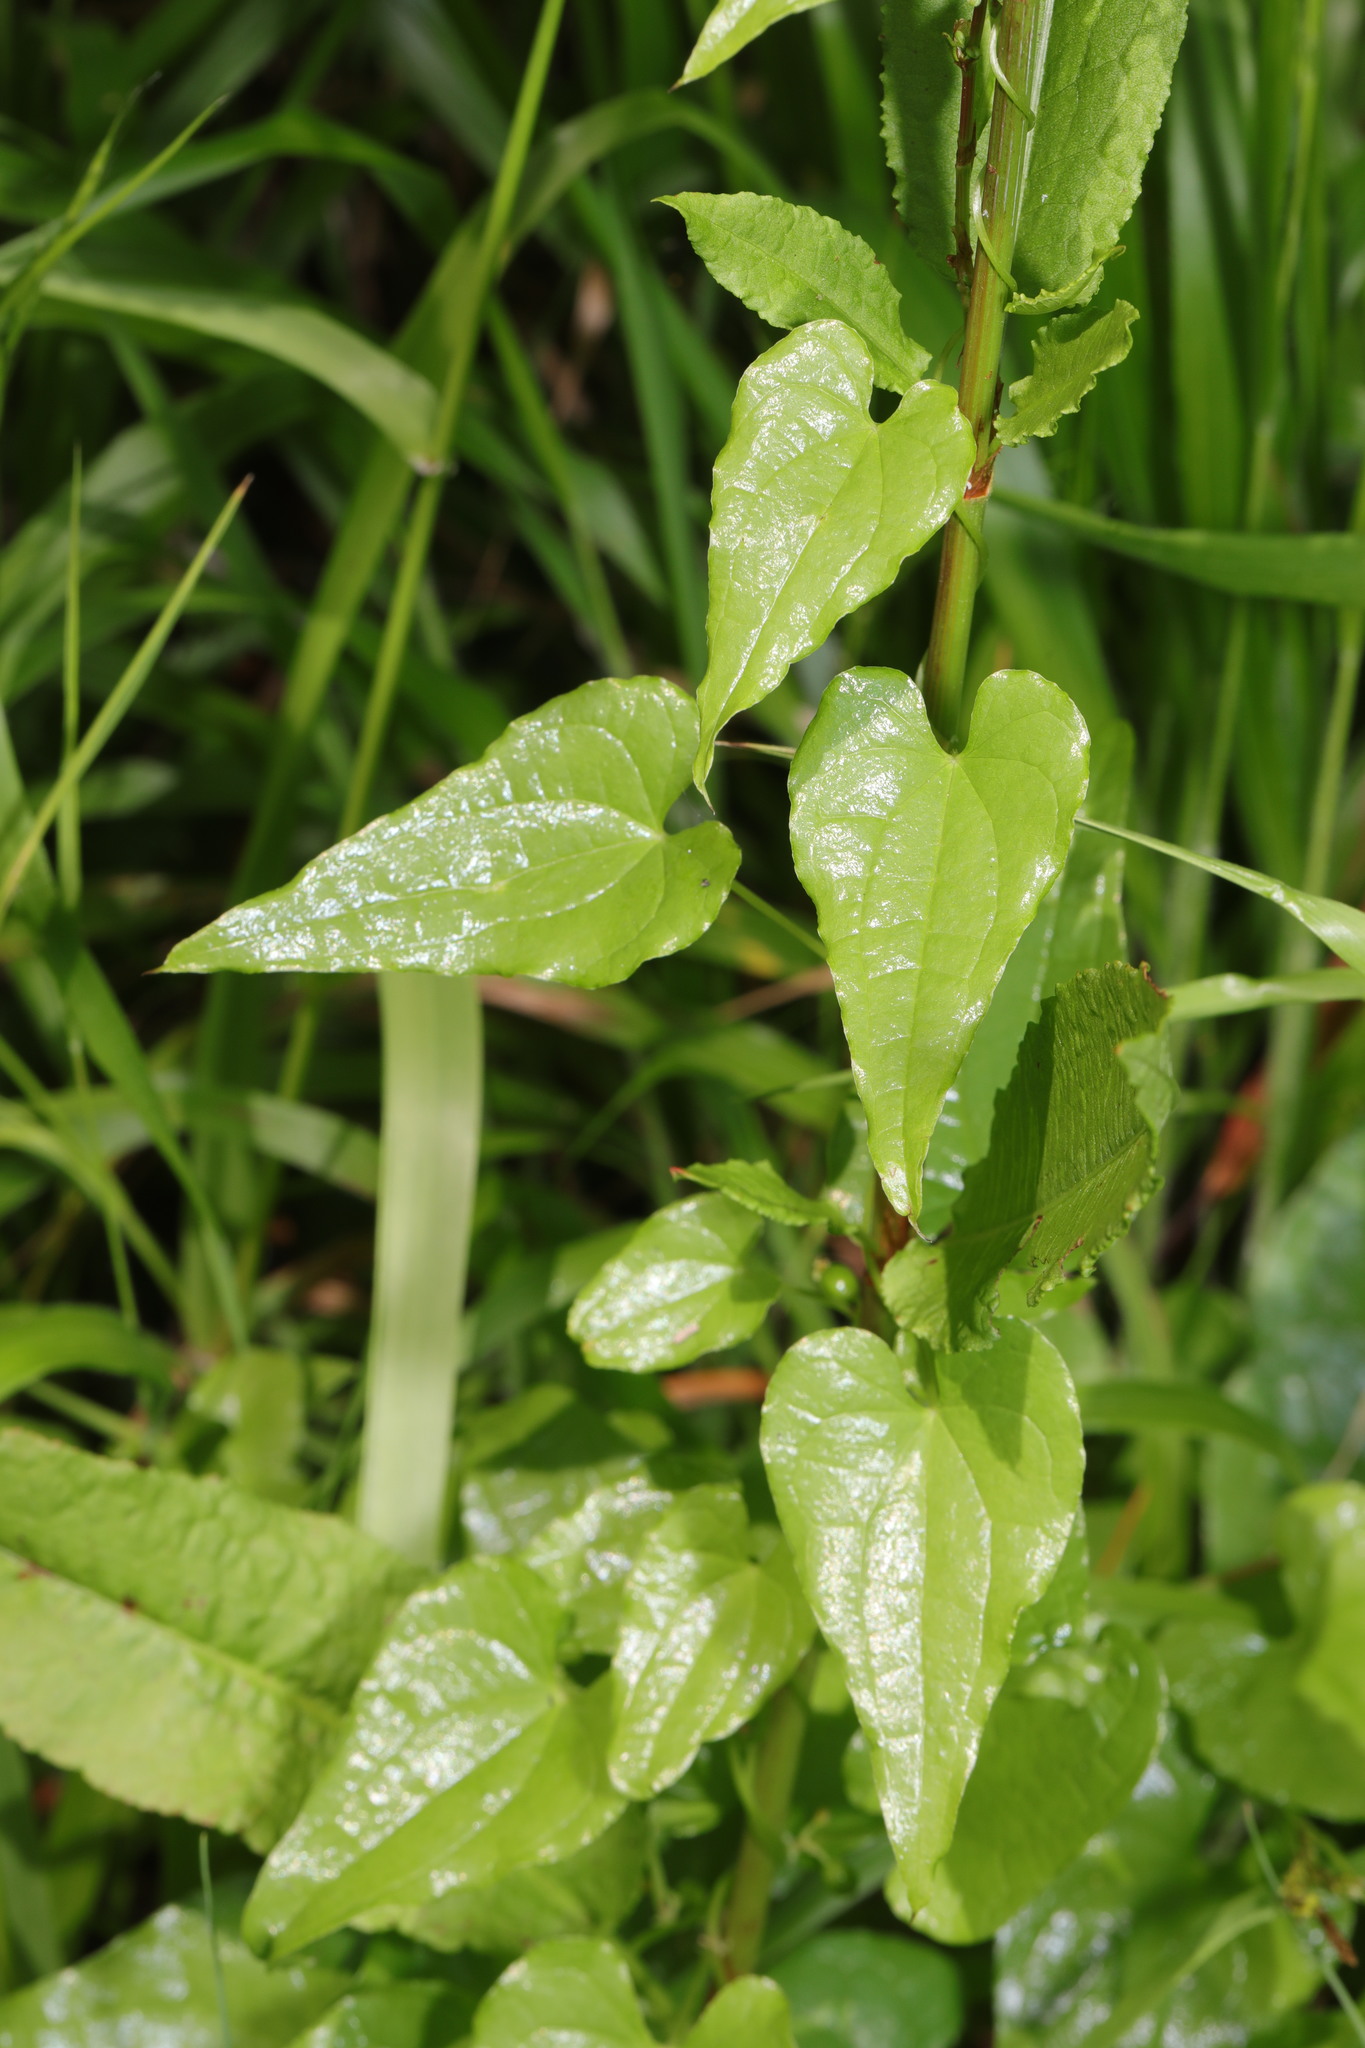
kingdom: Plantae
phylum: Tracheophyta
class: Liliopsida
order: Dioscoreales
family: Dioscoreaceae
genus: Dioscorea
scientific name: Dioscorea communis
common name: Black-bindweed
